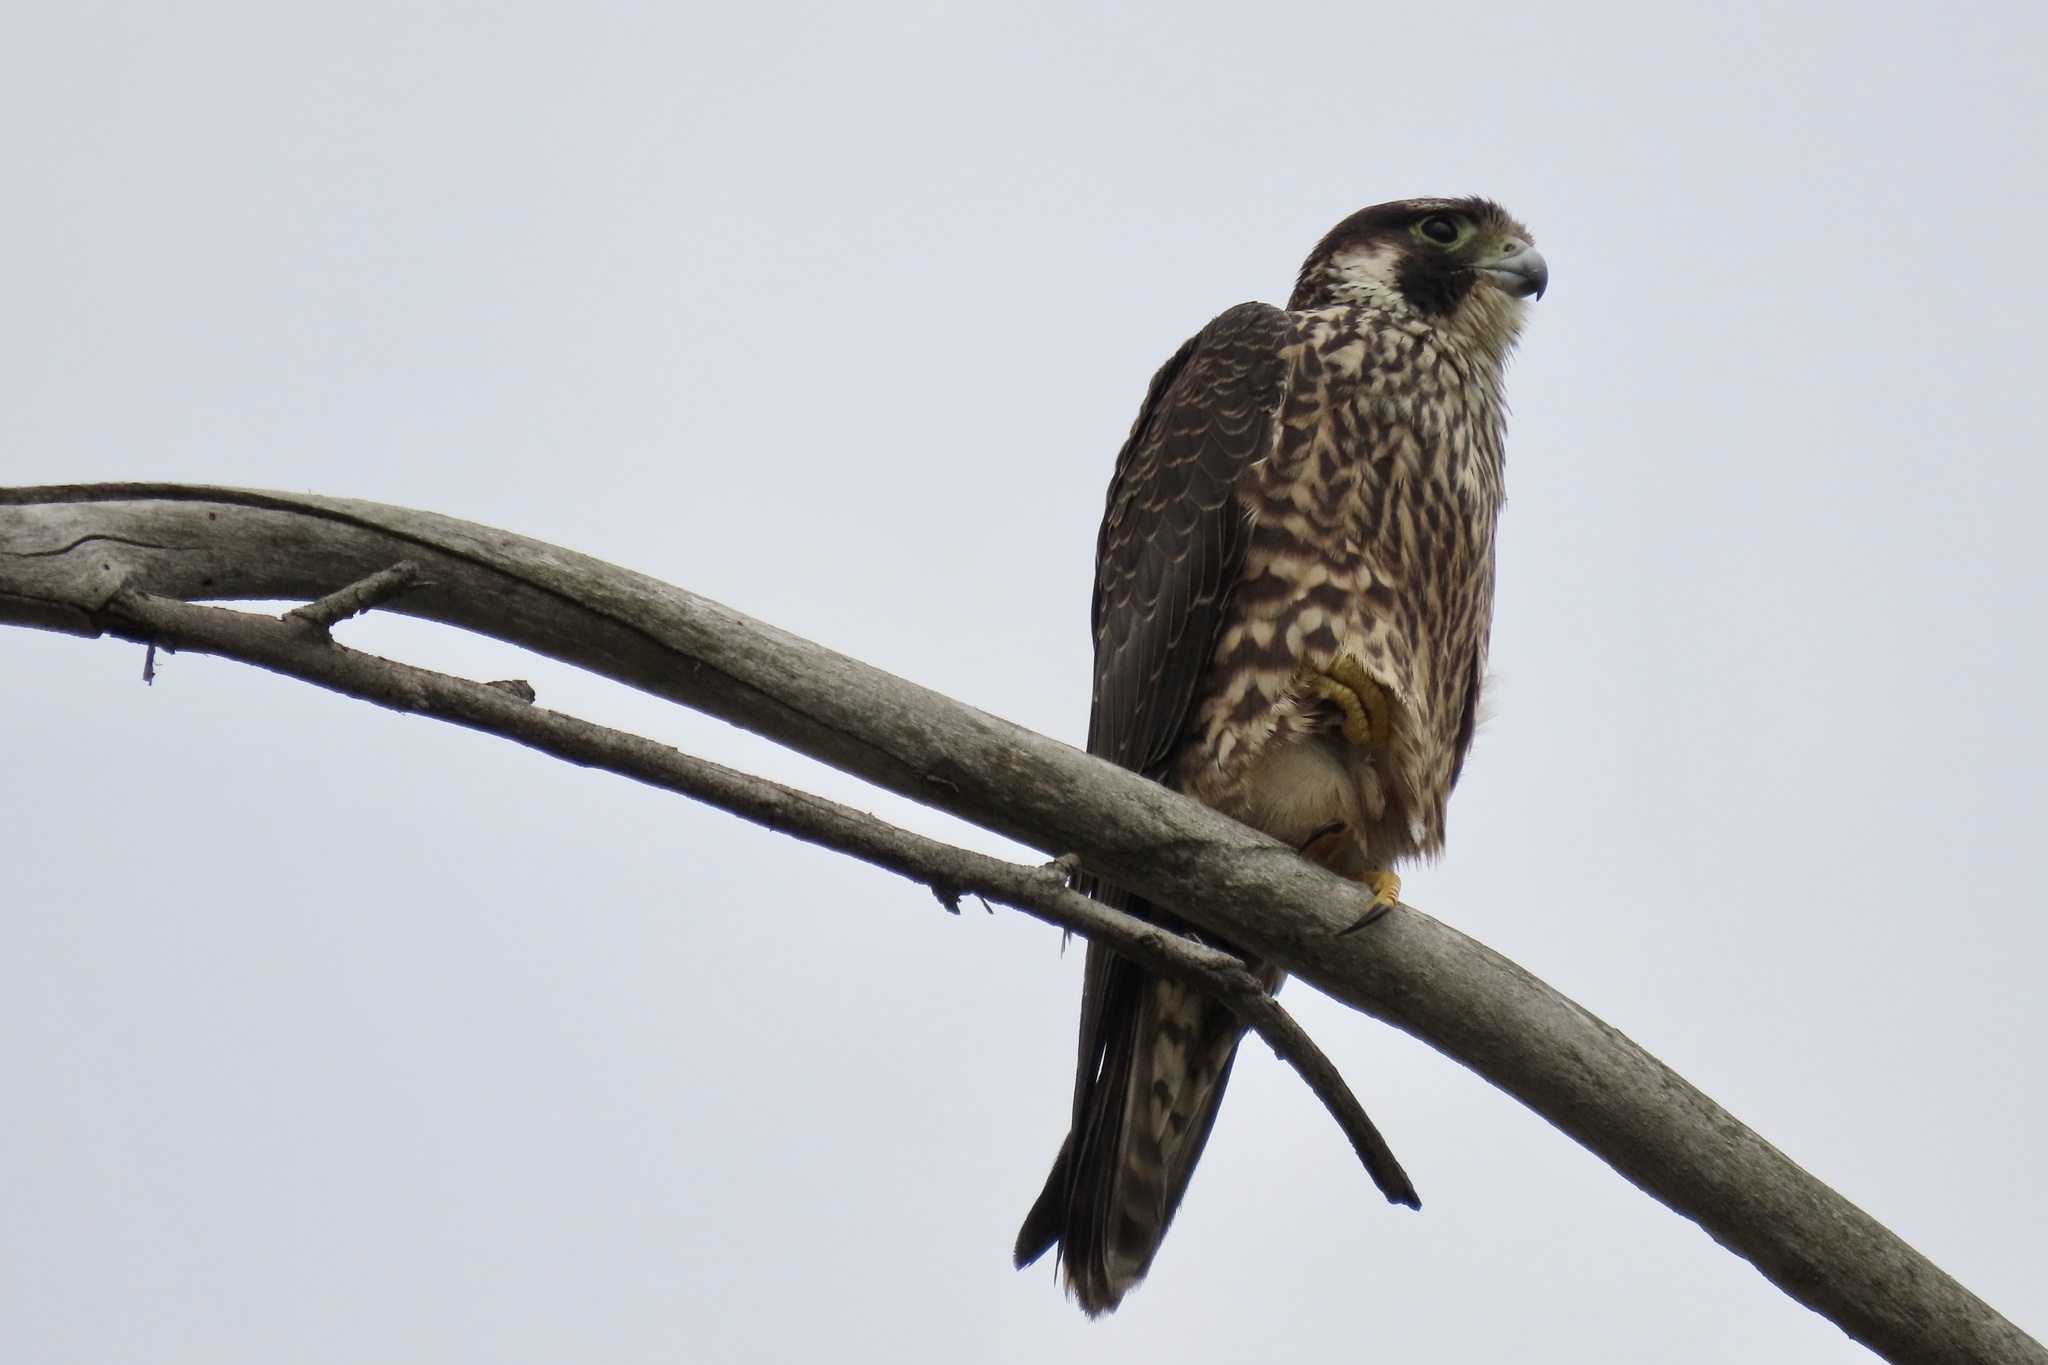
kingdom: Animalia
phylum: Chordata
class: Aves
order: Falconiformes
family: Falconidae
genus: Falco
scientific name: Falco peregrinus
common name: Peregrine falcon
